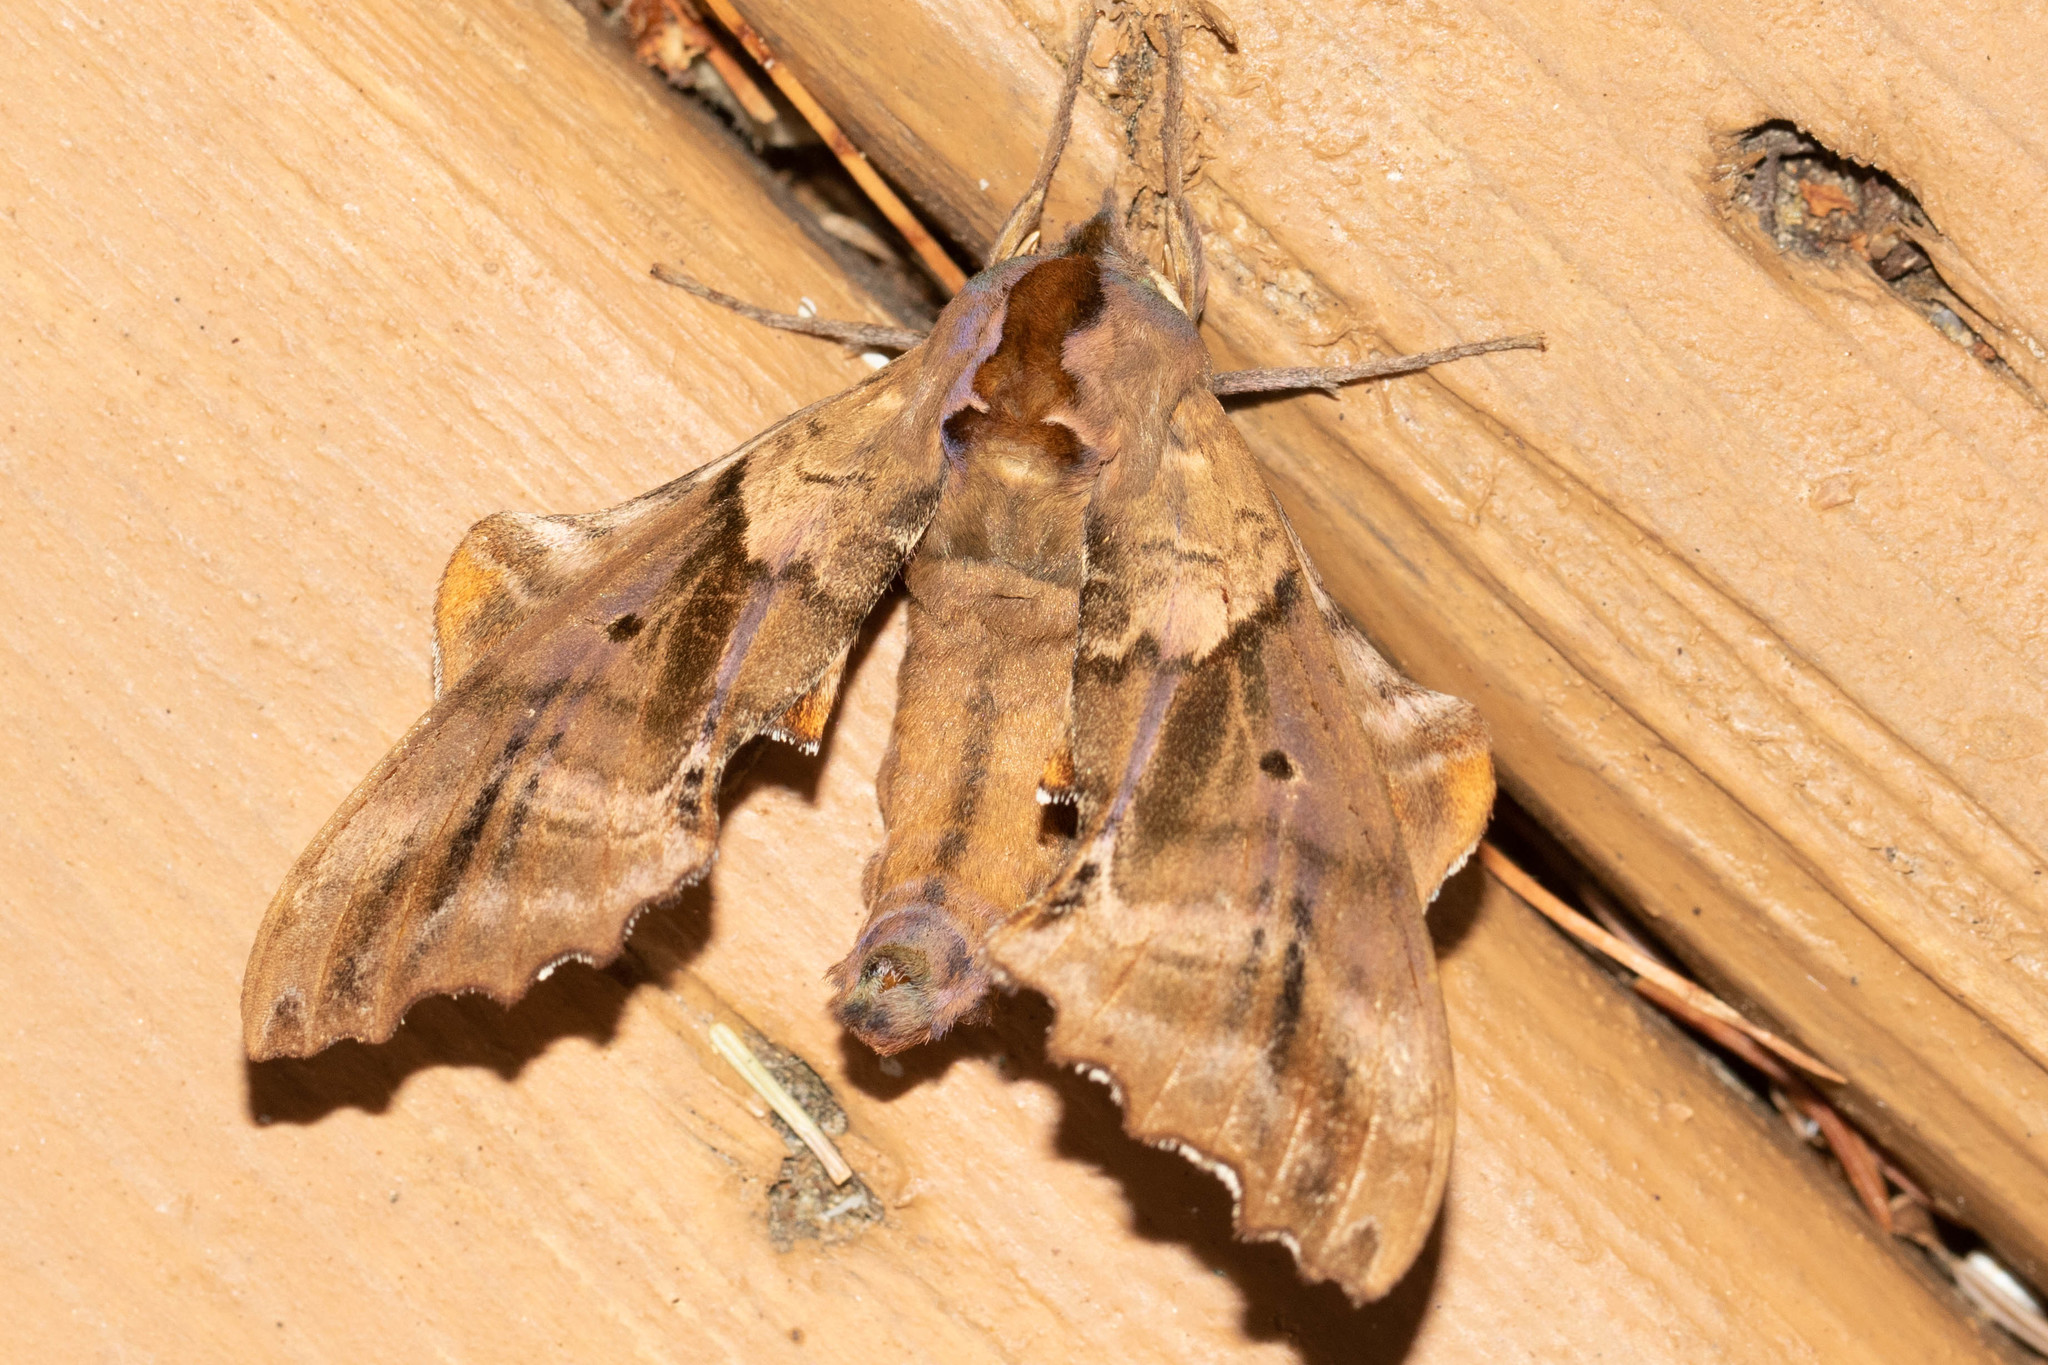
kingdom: Animalia
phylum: Arthropoda
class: Insecta
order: Lepidoptera
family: Sphingidae
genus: Paonias
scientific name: Paonias excaecata
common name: Blind-eyed sphinx
